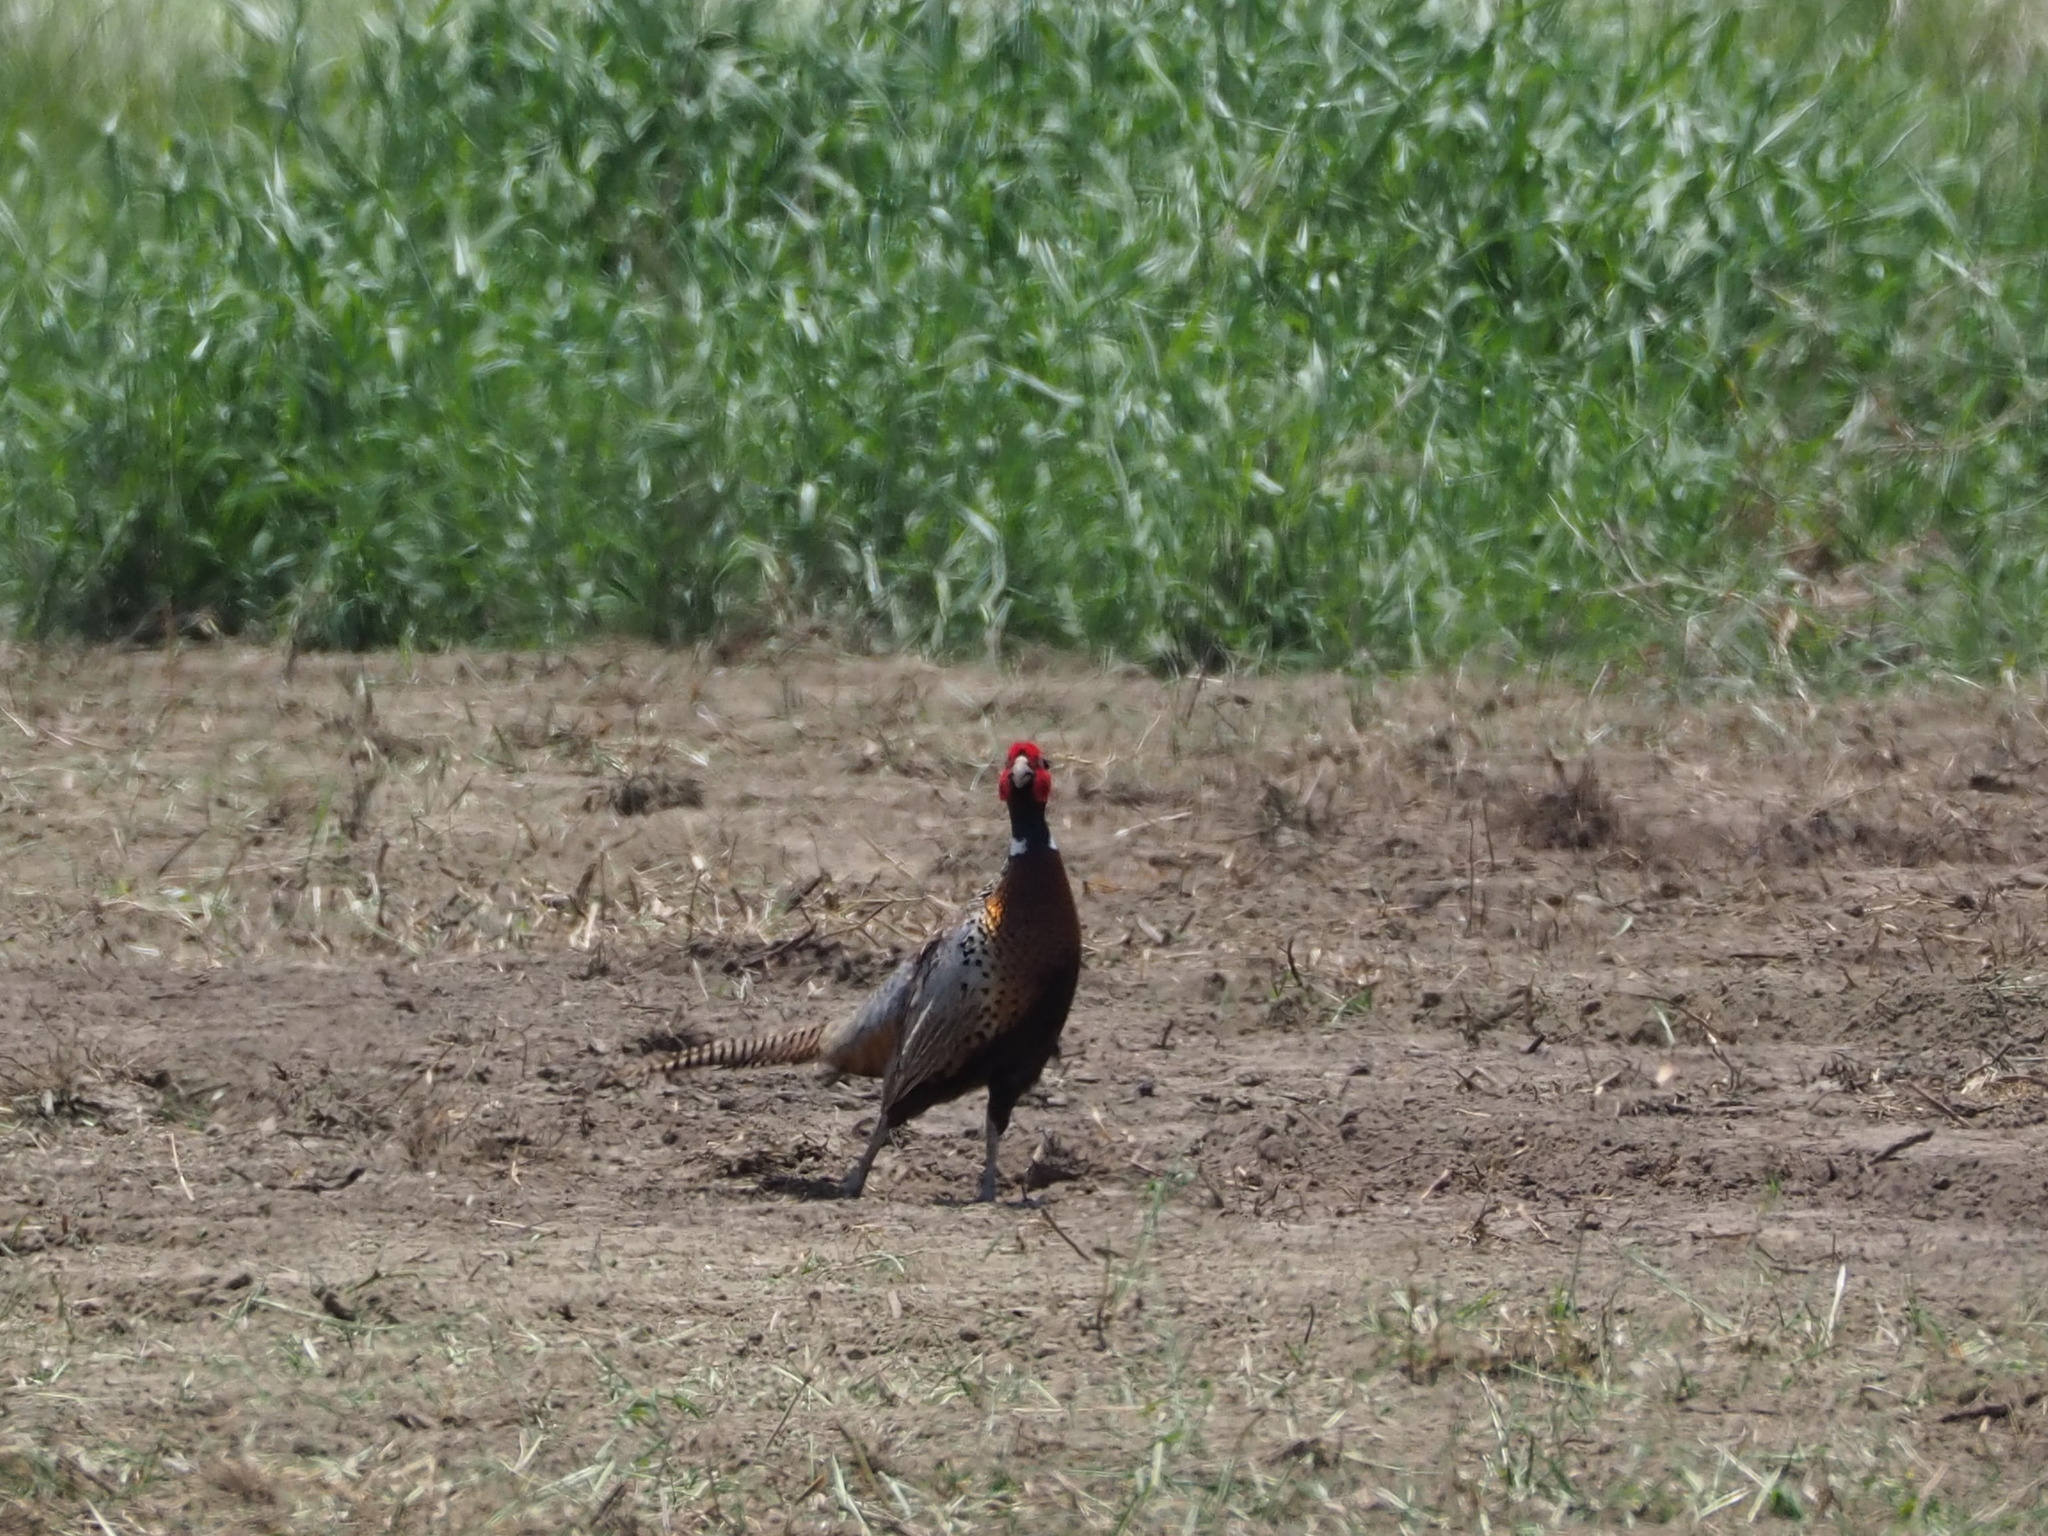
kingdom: Animalia
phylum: Chordata
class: Aves
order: Galliformes
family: Phasianidae
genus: Phasianus
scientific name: Phasianus colchicus
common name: Common pheasant
